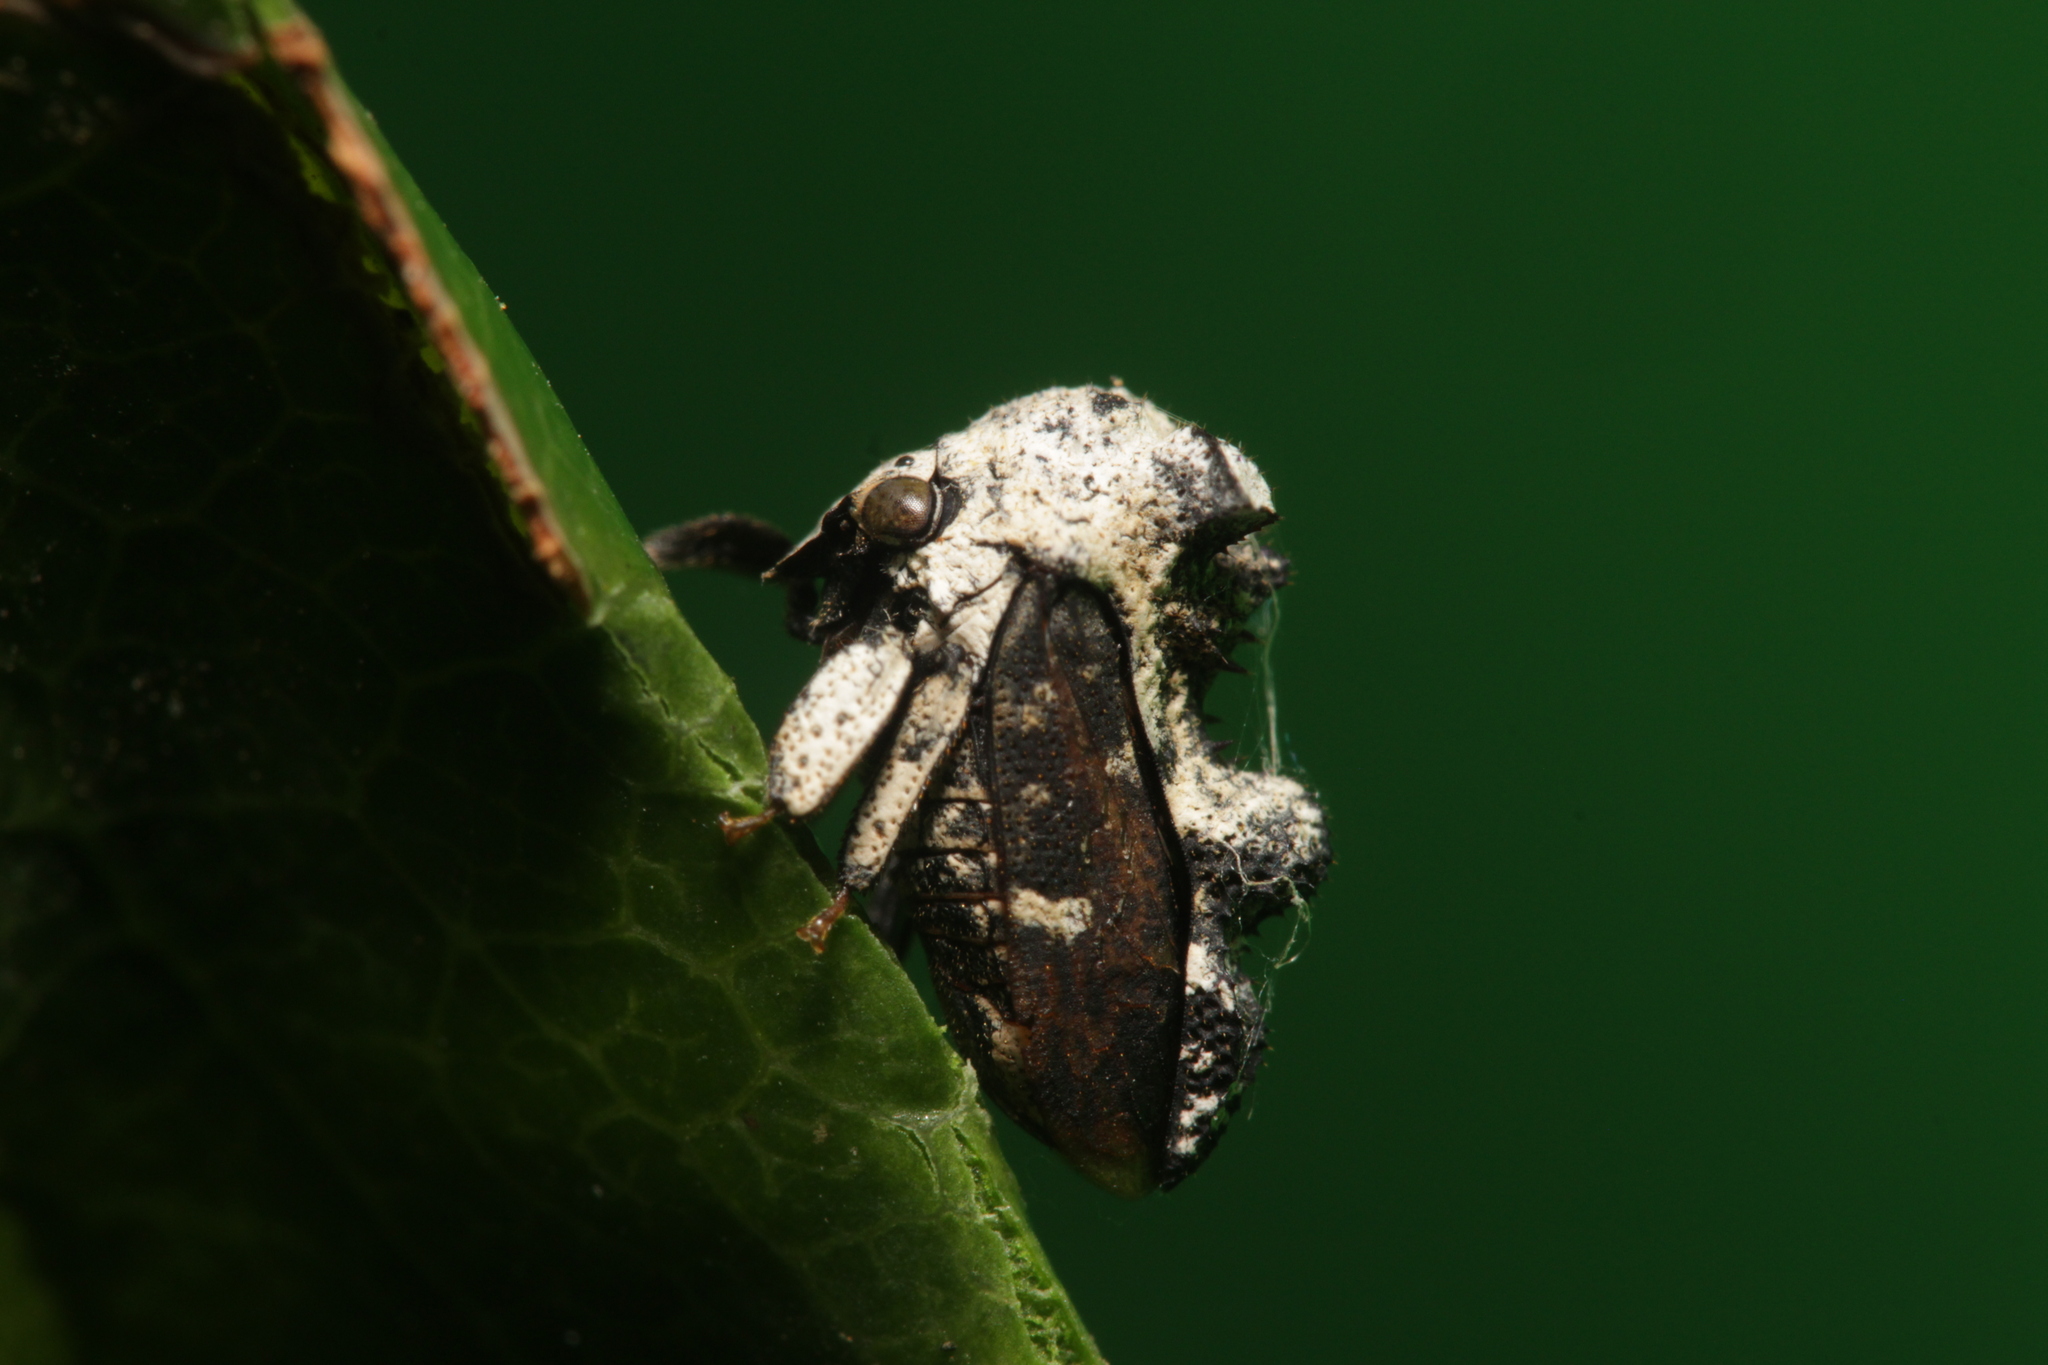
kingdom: Animalia
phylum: Arthropoda
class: Insecta
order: Hemiptera
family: Membracidae
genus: Notocera
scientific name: Notocera bituberculata
